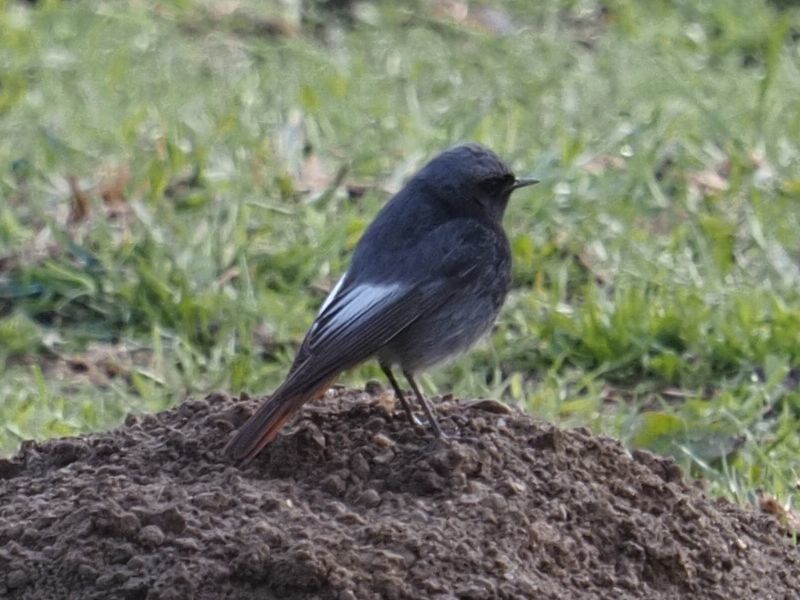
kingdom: Animalia
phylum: Chordata
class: Aves
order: Passeriformes
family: Muscicapidae
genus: Phoenicurus
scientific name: Phoenicurus ochruros
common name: Black redstart
